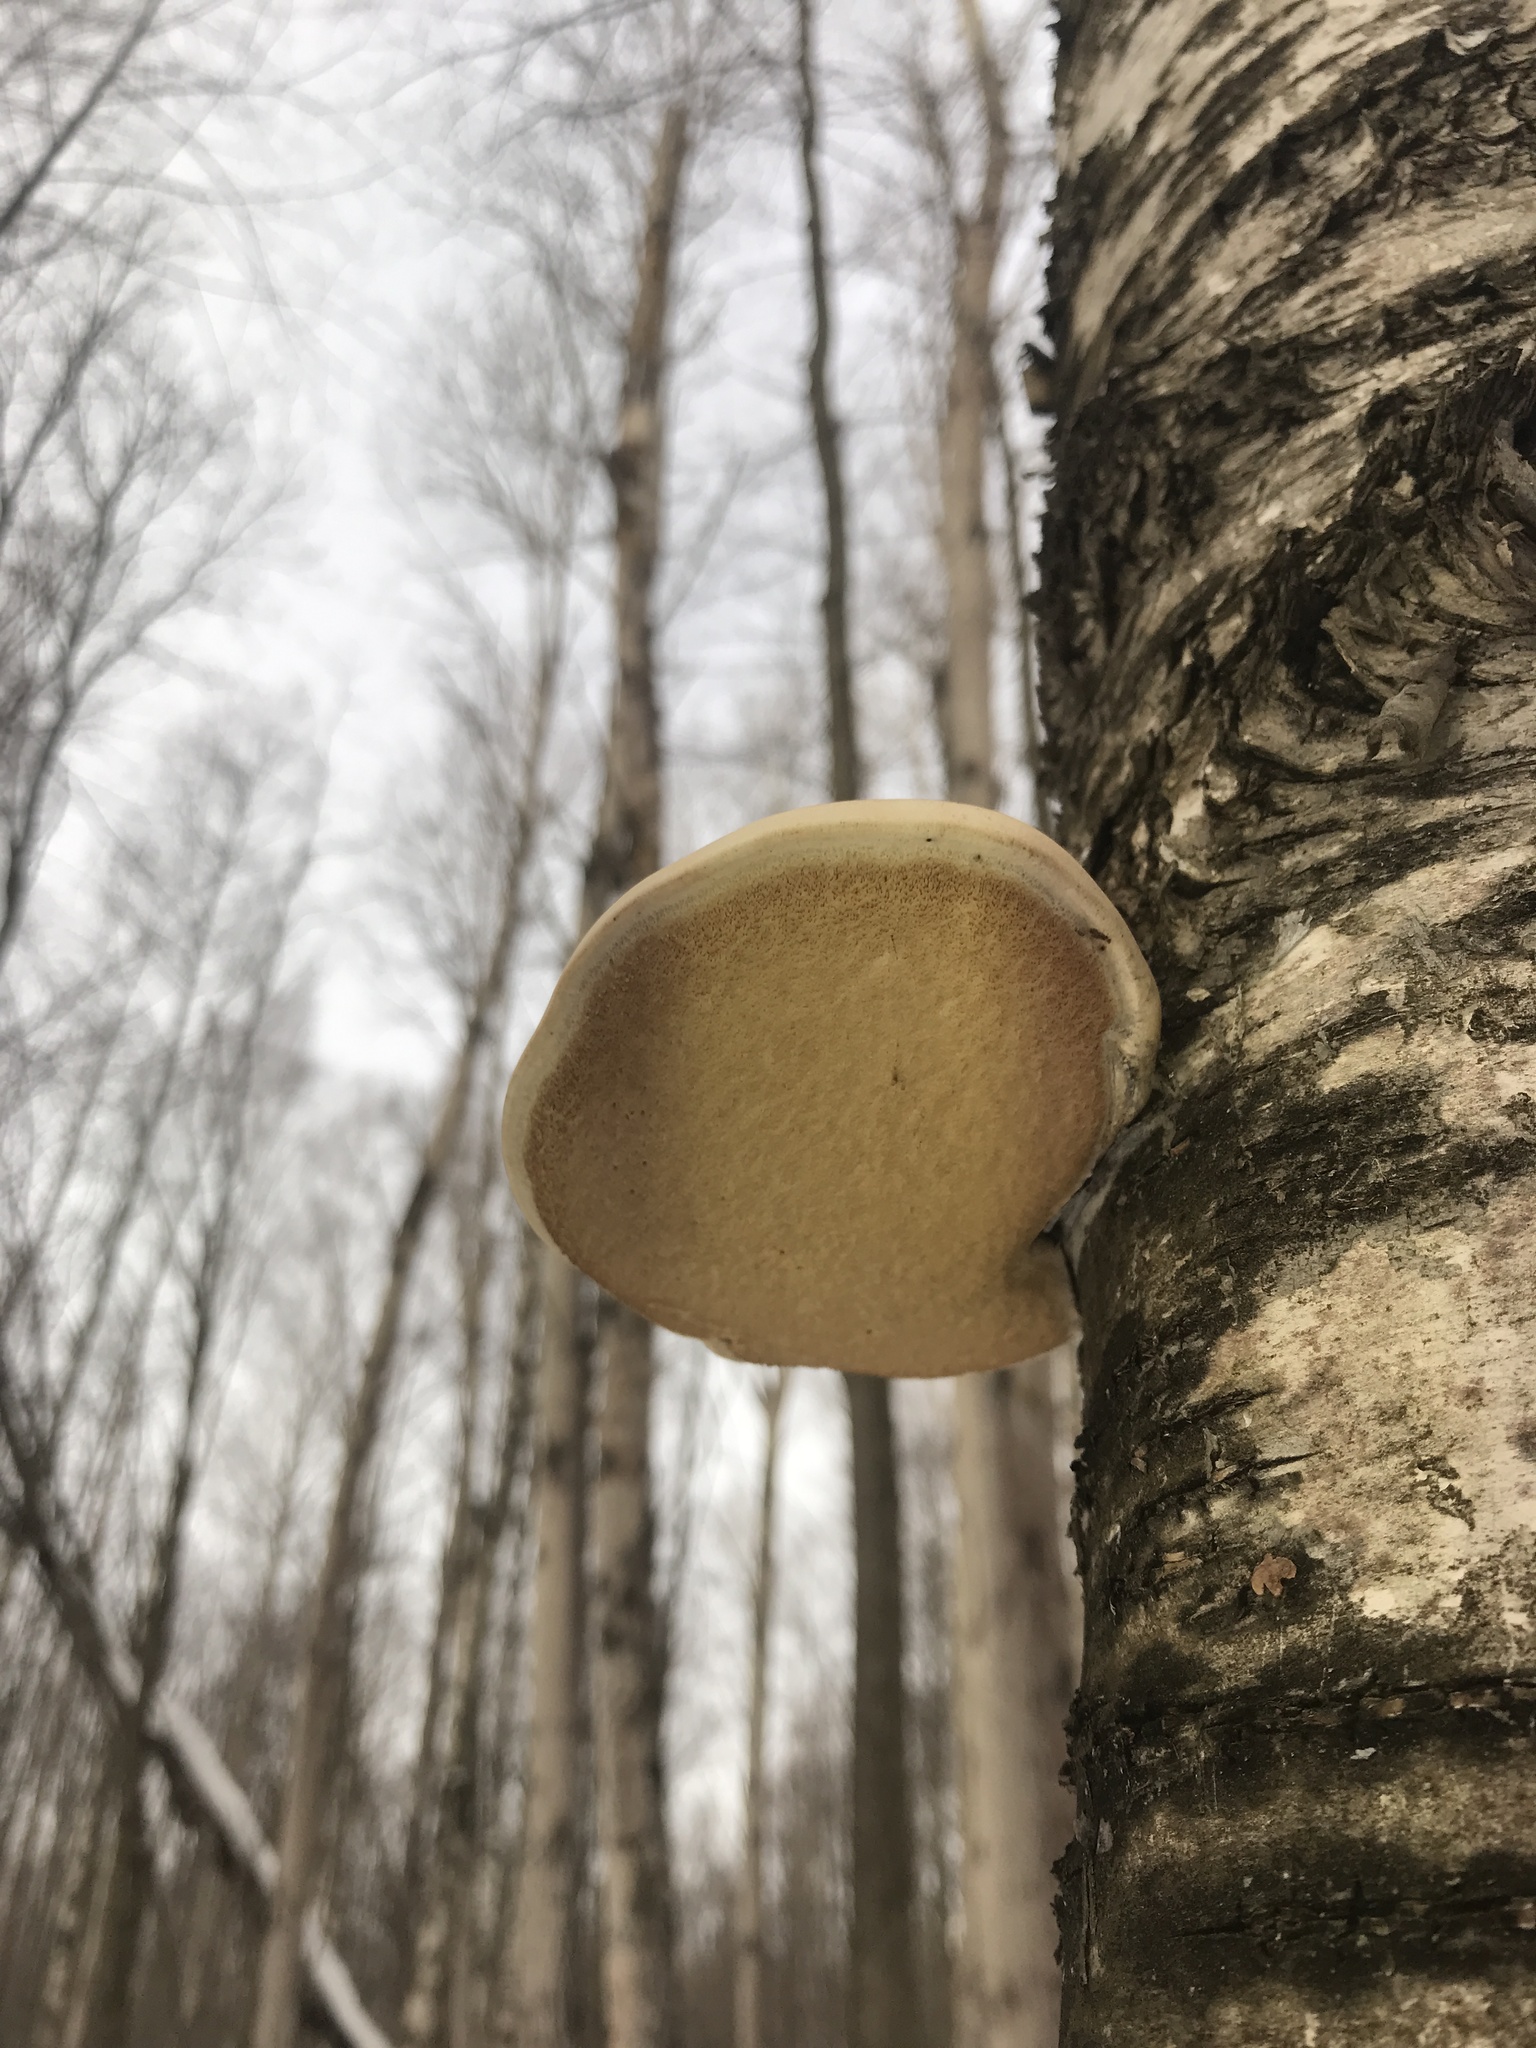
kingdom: Fungi
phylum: Basidiomycota
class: Agaricomycetes
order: Polyporales
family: Fomitopsidaceae
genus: Fomitopsis
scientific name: Fomitopsis betulina
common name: Birch polypore
